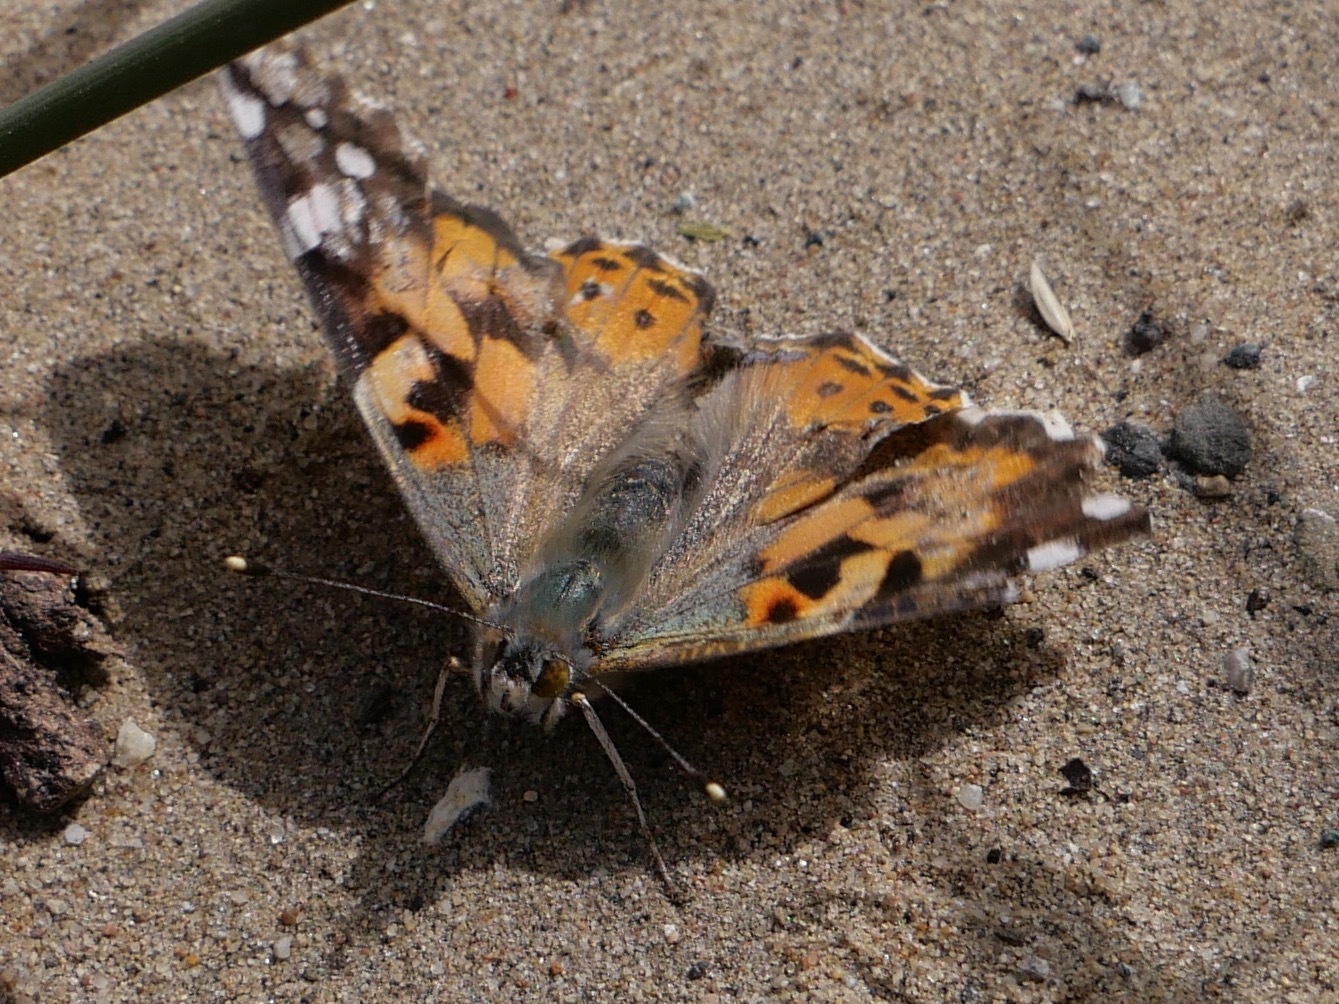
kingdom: Animalia
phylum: Arthropoda
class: Insecta
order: Lepidoptera
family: Nymphalidae
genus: Vanessa
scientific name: Vanessa cardui
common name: Painted lady
